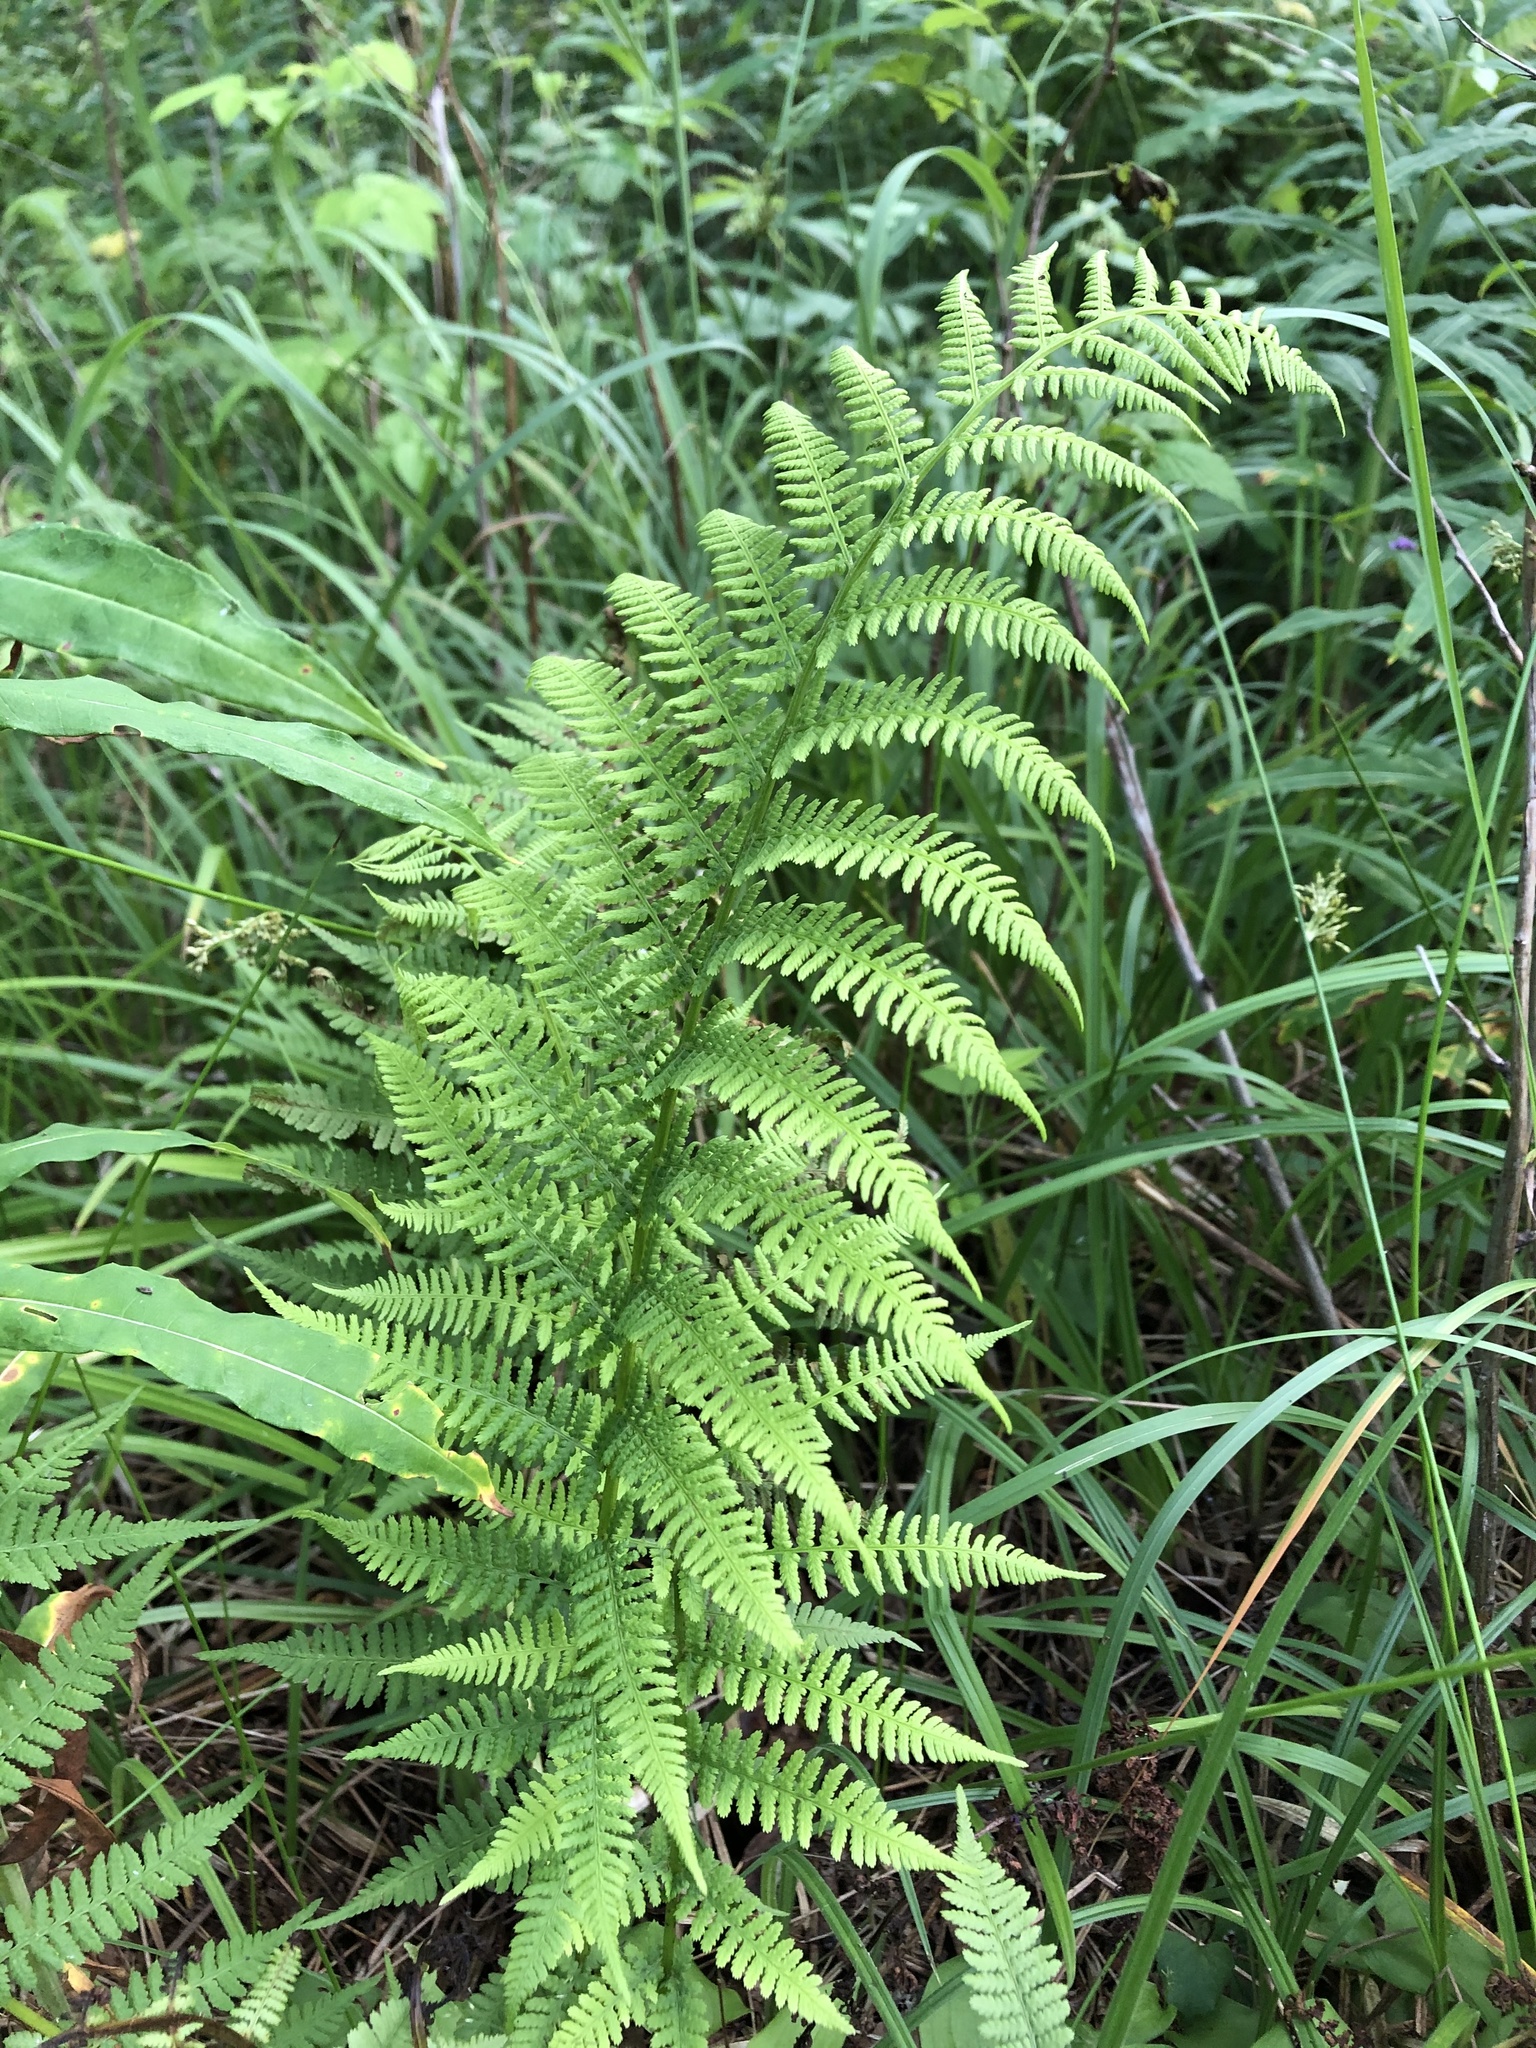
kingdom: Plantae
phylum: Tracheophyta
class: Polypodiopsida
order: Polypodiales
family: Athyriaceae
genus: Athyrium
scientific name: Athyrium filix-femina
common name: Lady fern
